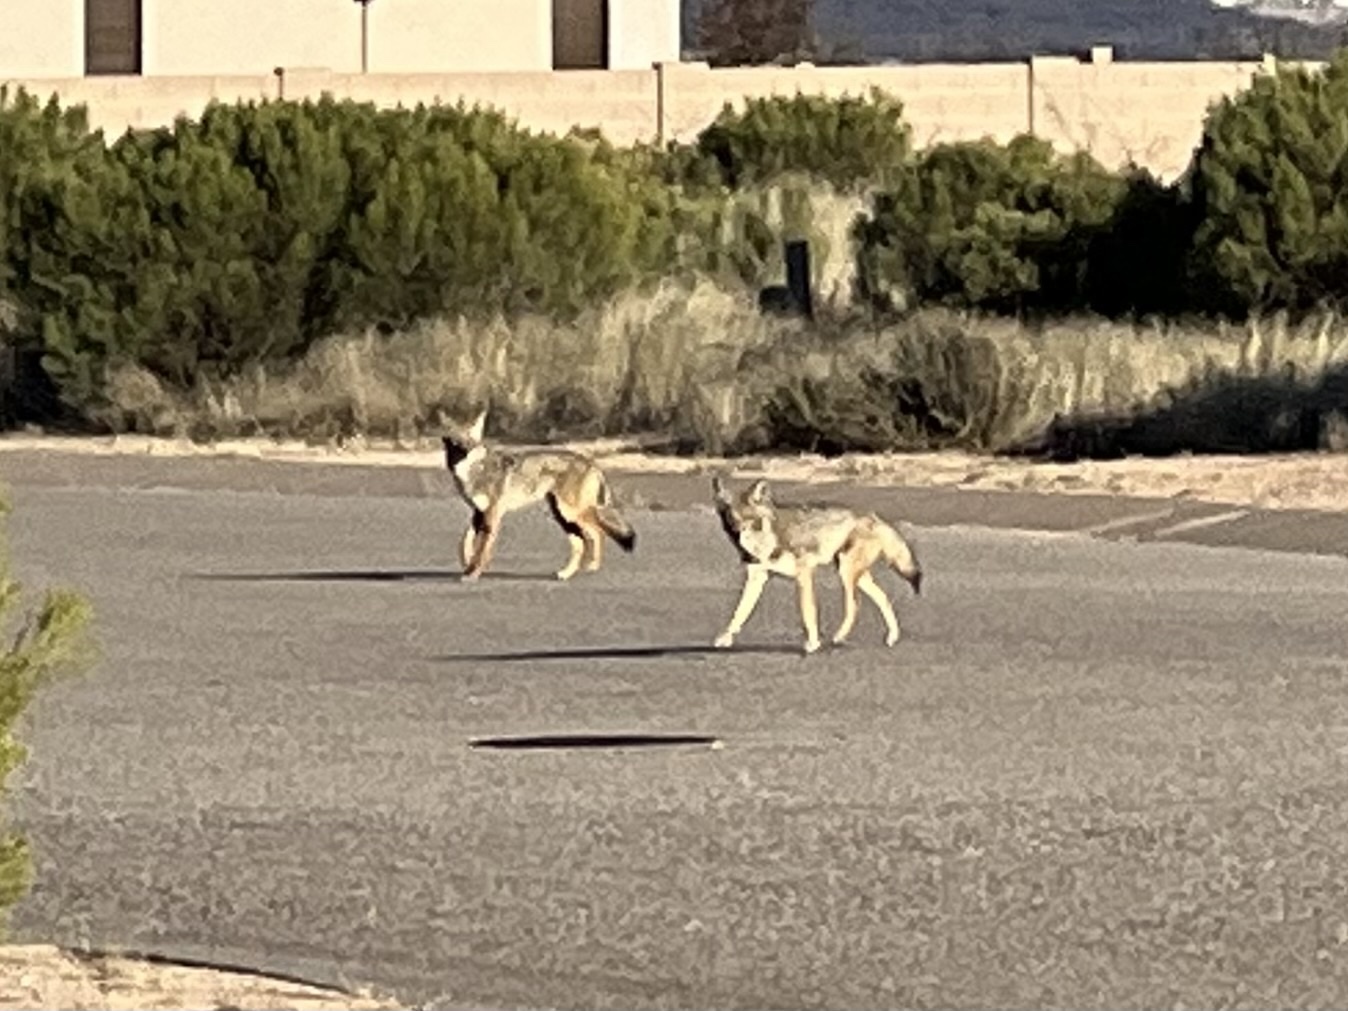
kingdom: Animalia
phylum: Chordata
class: Mammalia
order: Carnivora
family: Canidae
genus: Canis
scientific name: Canis latrans
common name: Coyote
